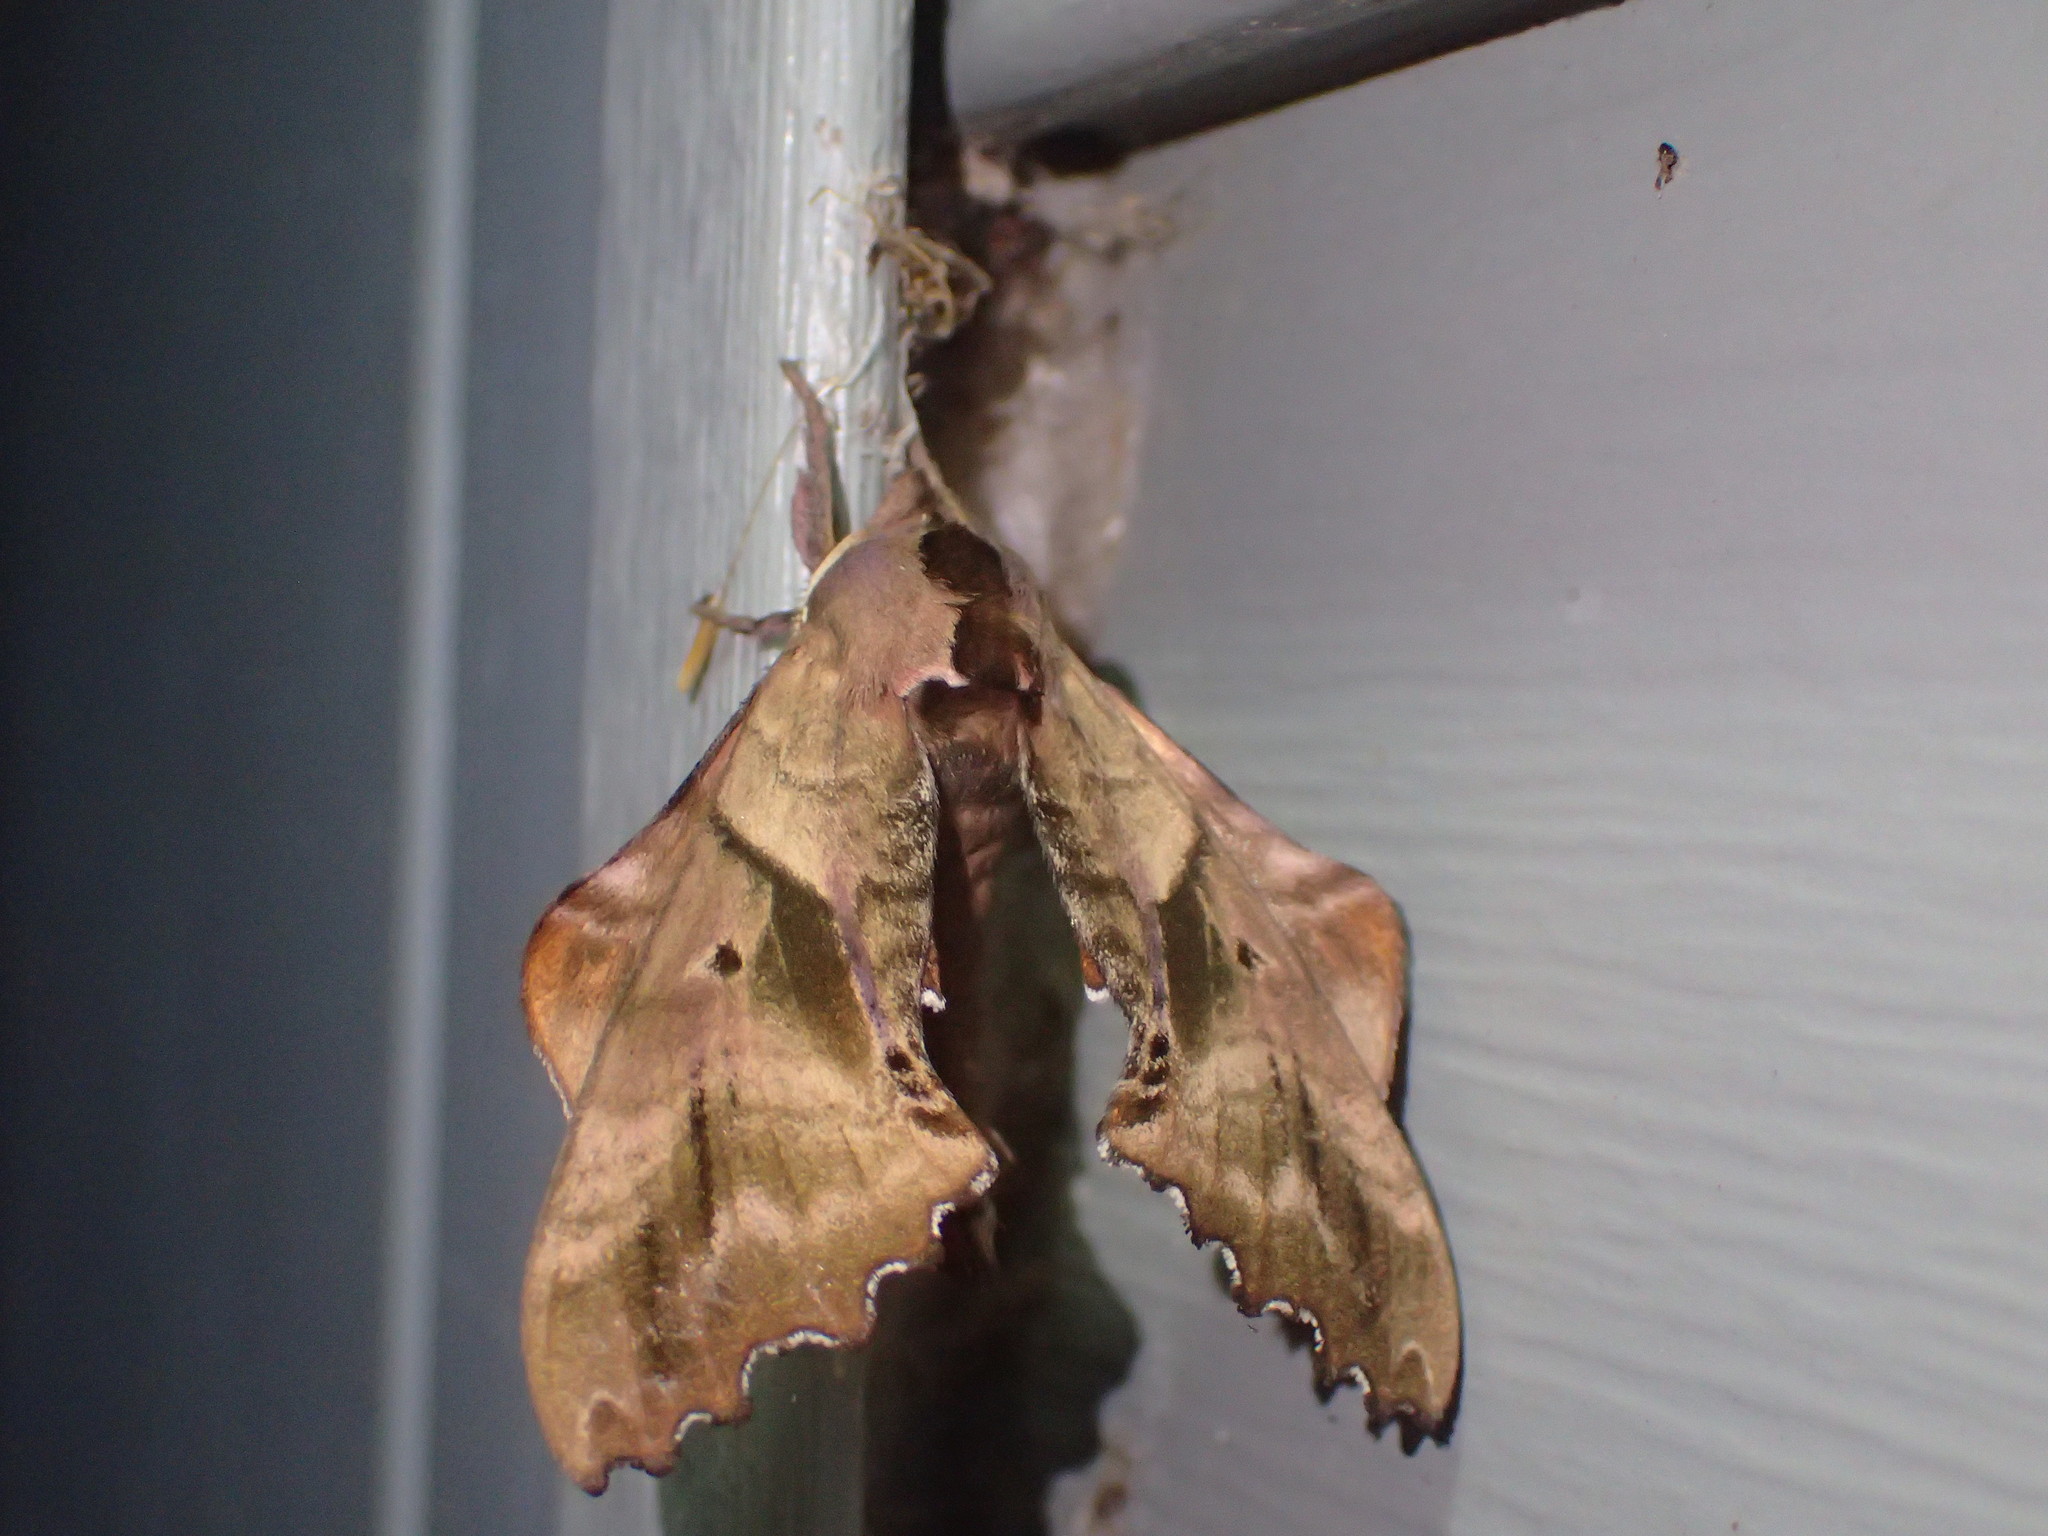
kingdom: Animalia
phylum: Arthropoda
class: Insecta
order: Lepidoptera
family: Sphingidae
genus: Paonias
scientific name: Paonias excaecata
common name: Blind-eyed sphinx
